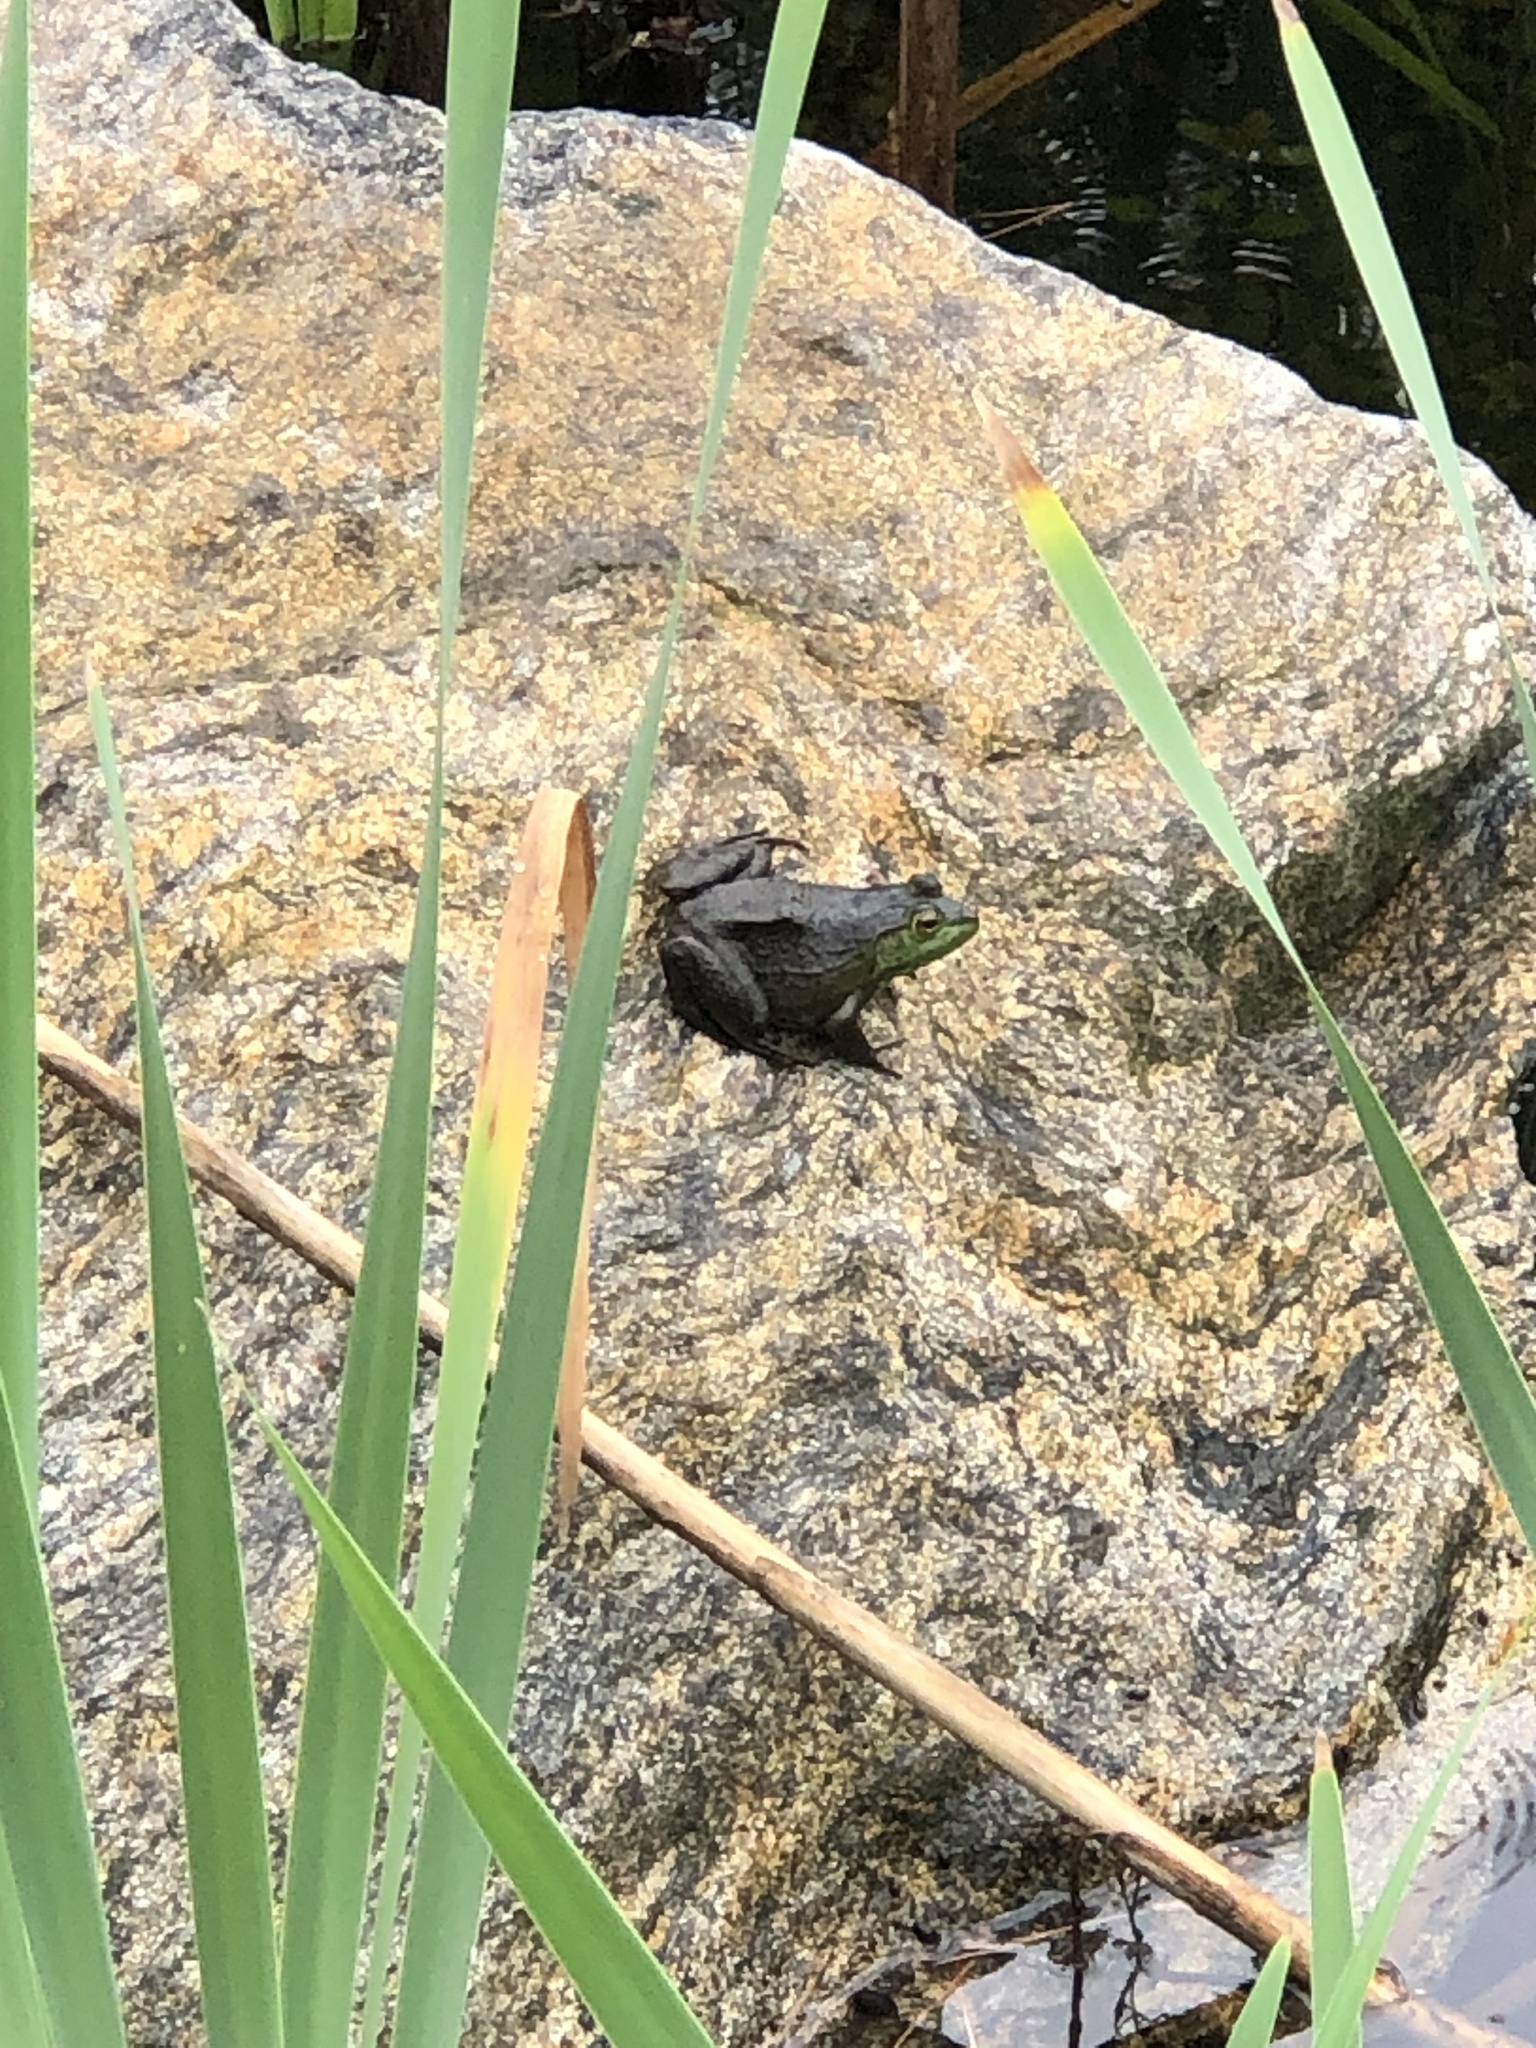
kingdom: Animalia
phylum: Chordata
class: Amphibia
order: Anura
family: Ranidae
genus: Lithobates
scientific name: Lithobates catesbeianus
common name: American bullfrog
